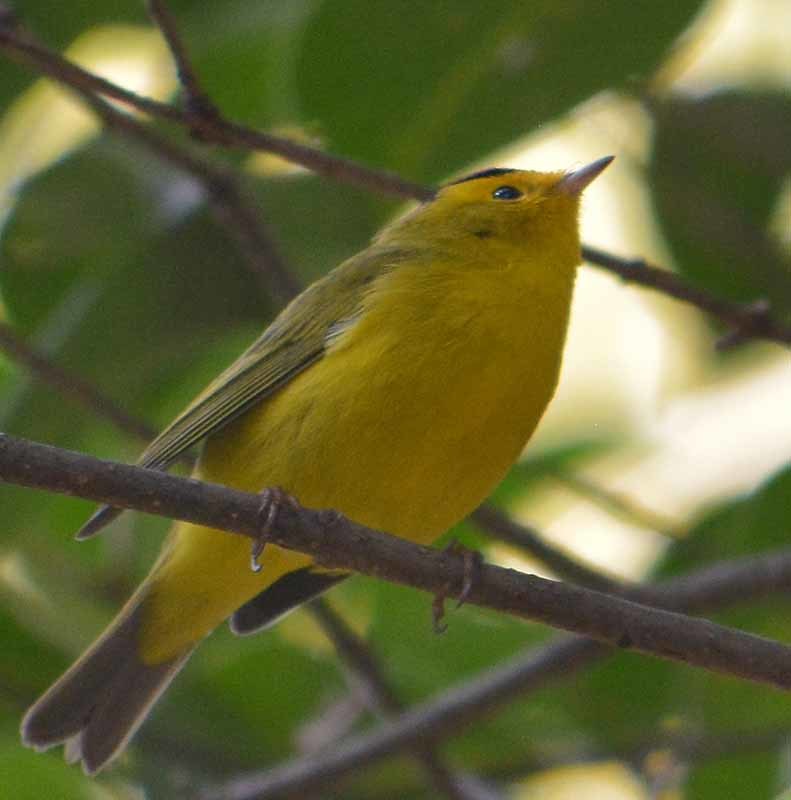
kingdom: Animalia
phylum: Chordata
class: Aves
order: Passeriformes
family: Parulidae
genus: Cardellina
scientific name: Cardellina pusilla
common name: Wilson's warbler
